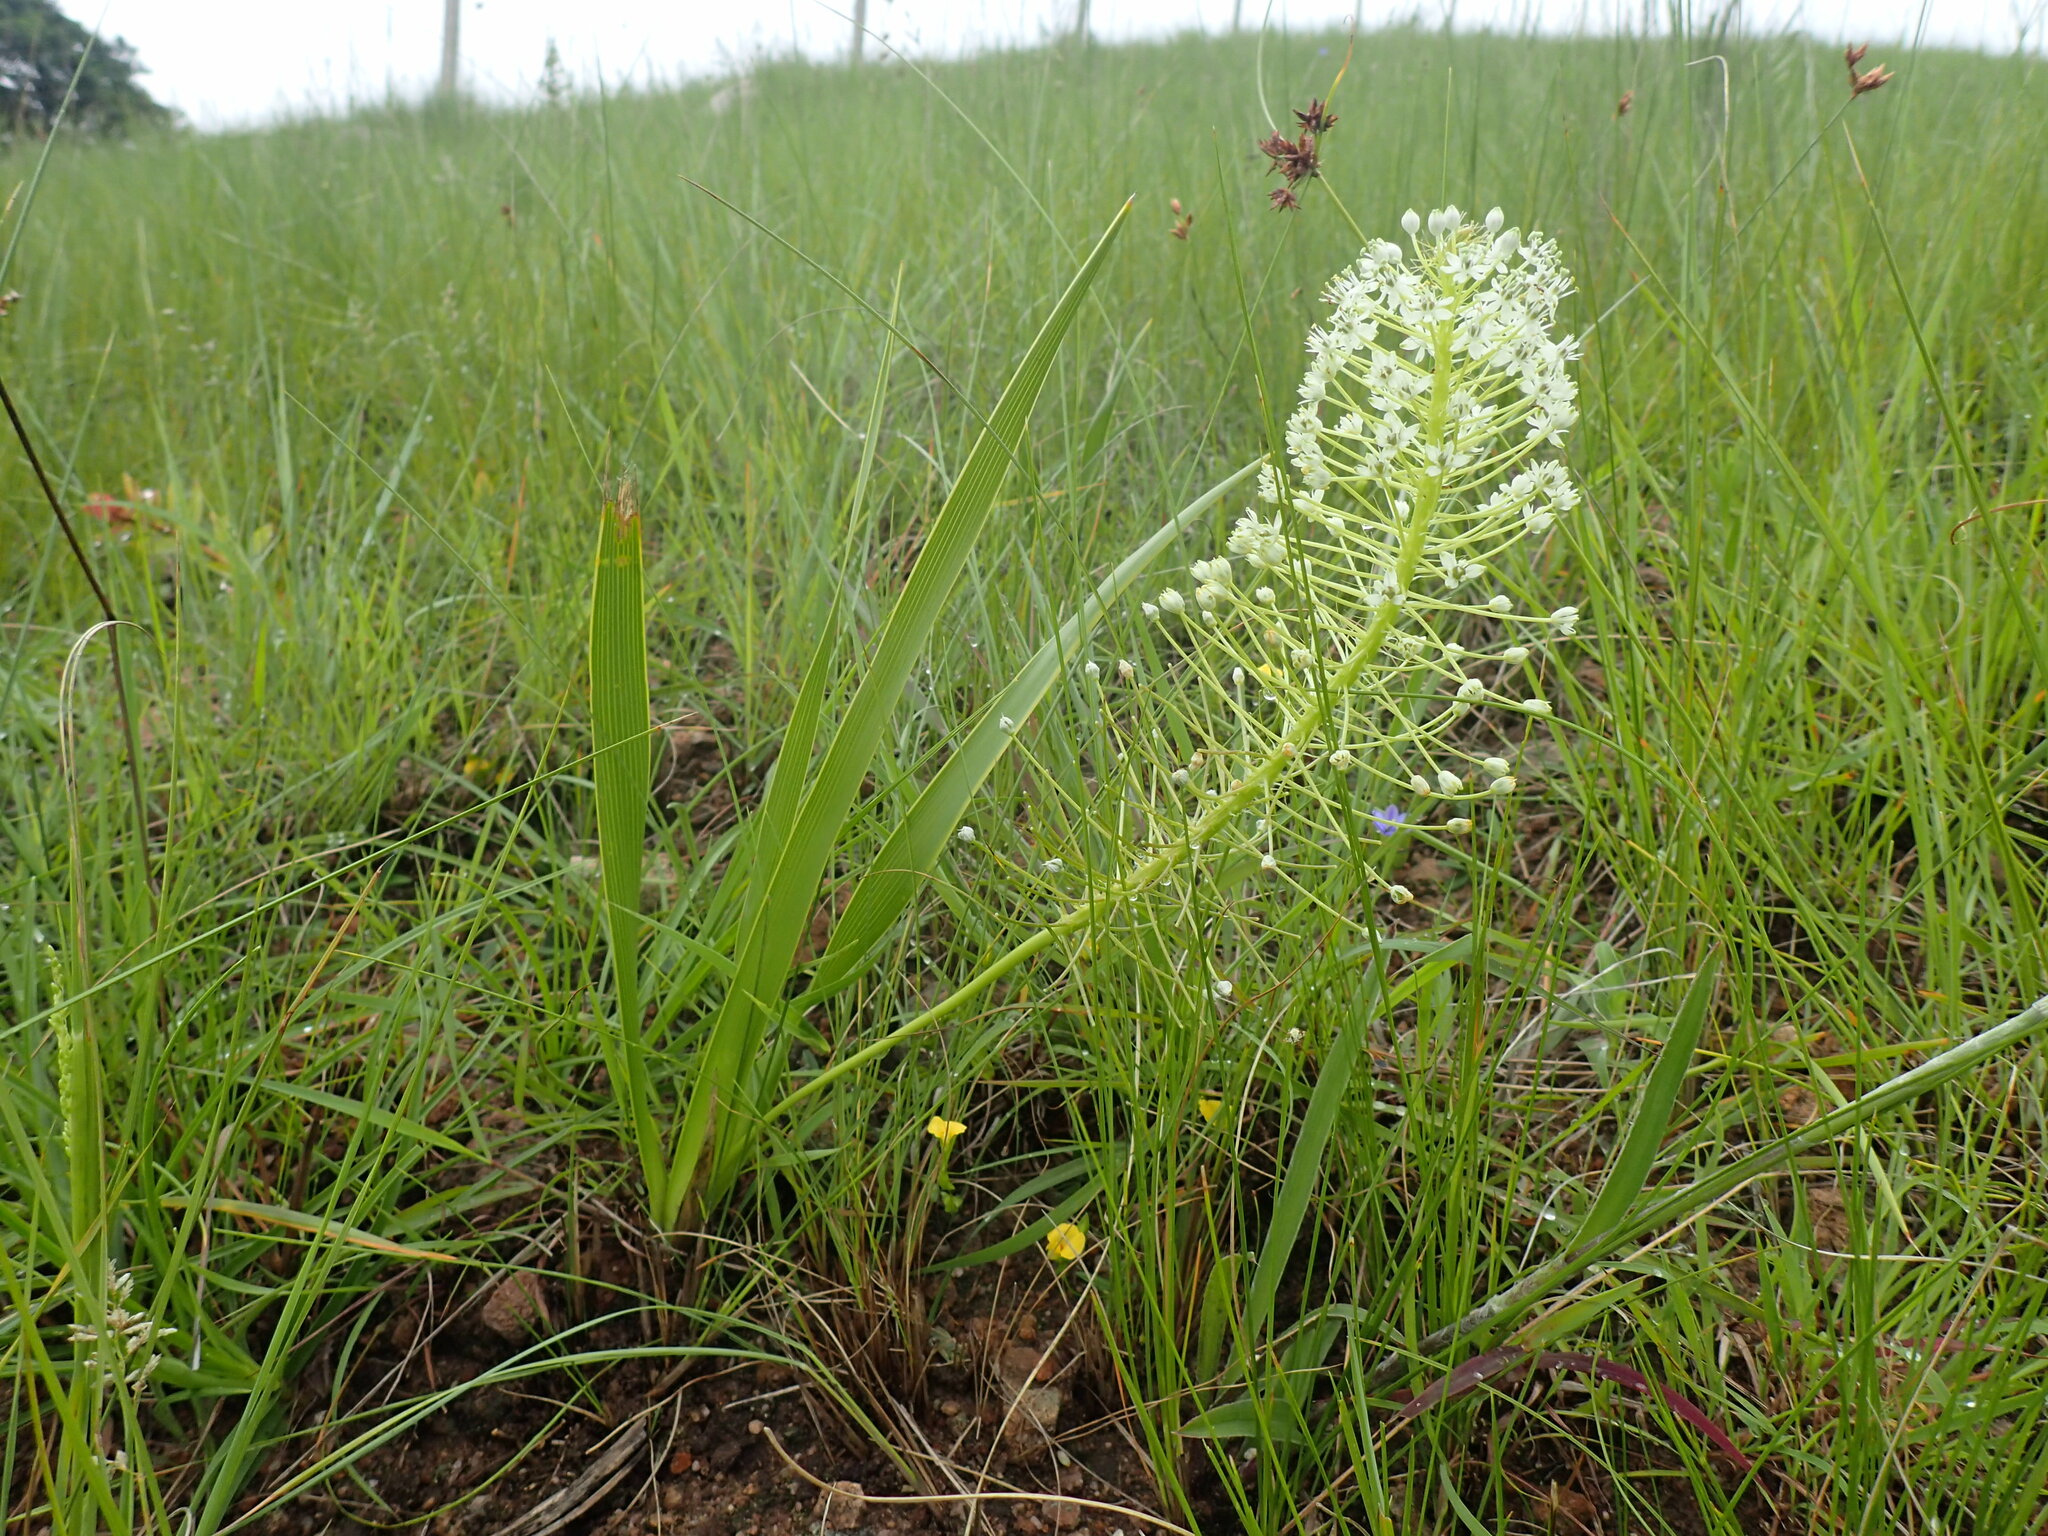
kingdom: Plantae
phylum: Tracheophyta
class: Liliopsida
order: Asparagales
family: Asparagaceae
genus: Schizocarphus
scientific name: Schizocarphus nervosus
